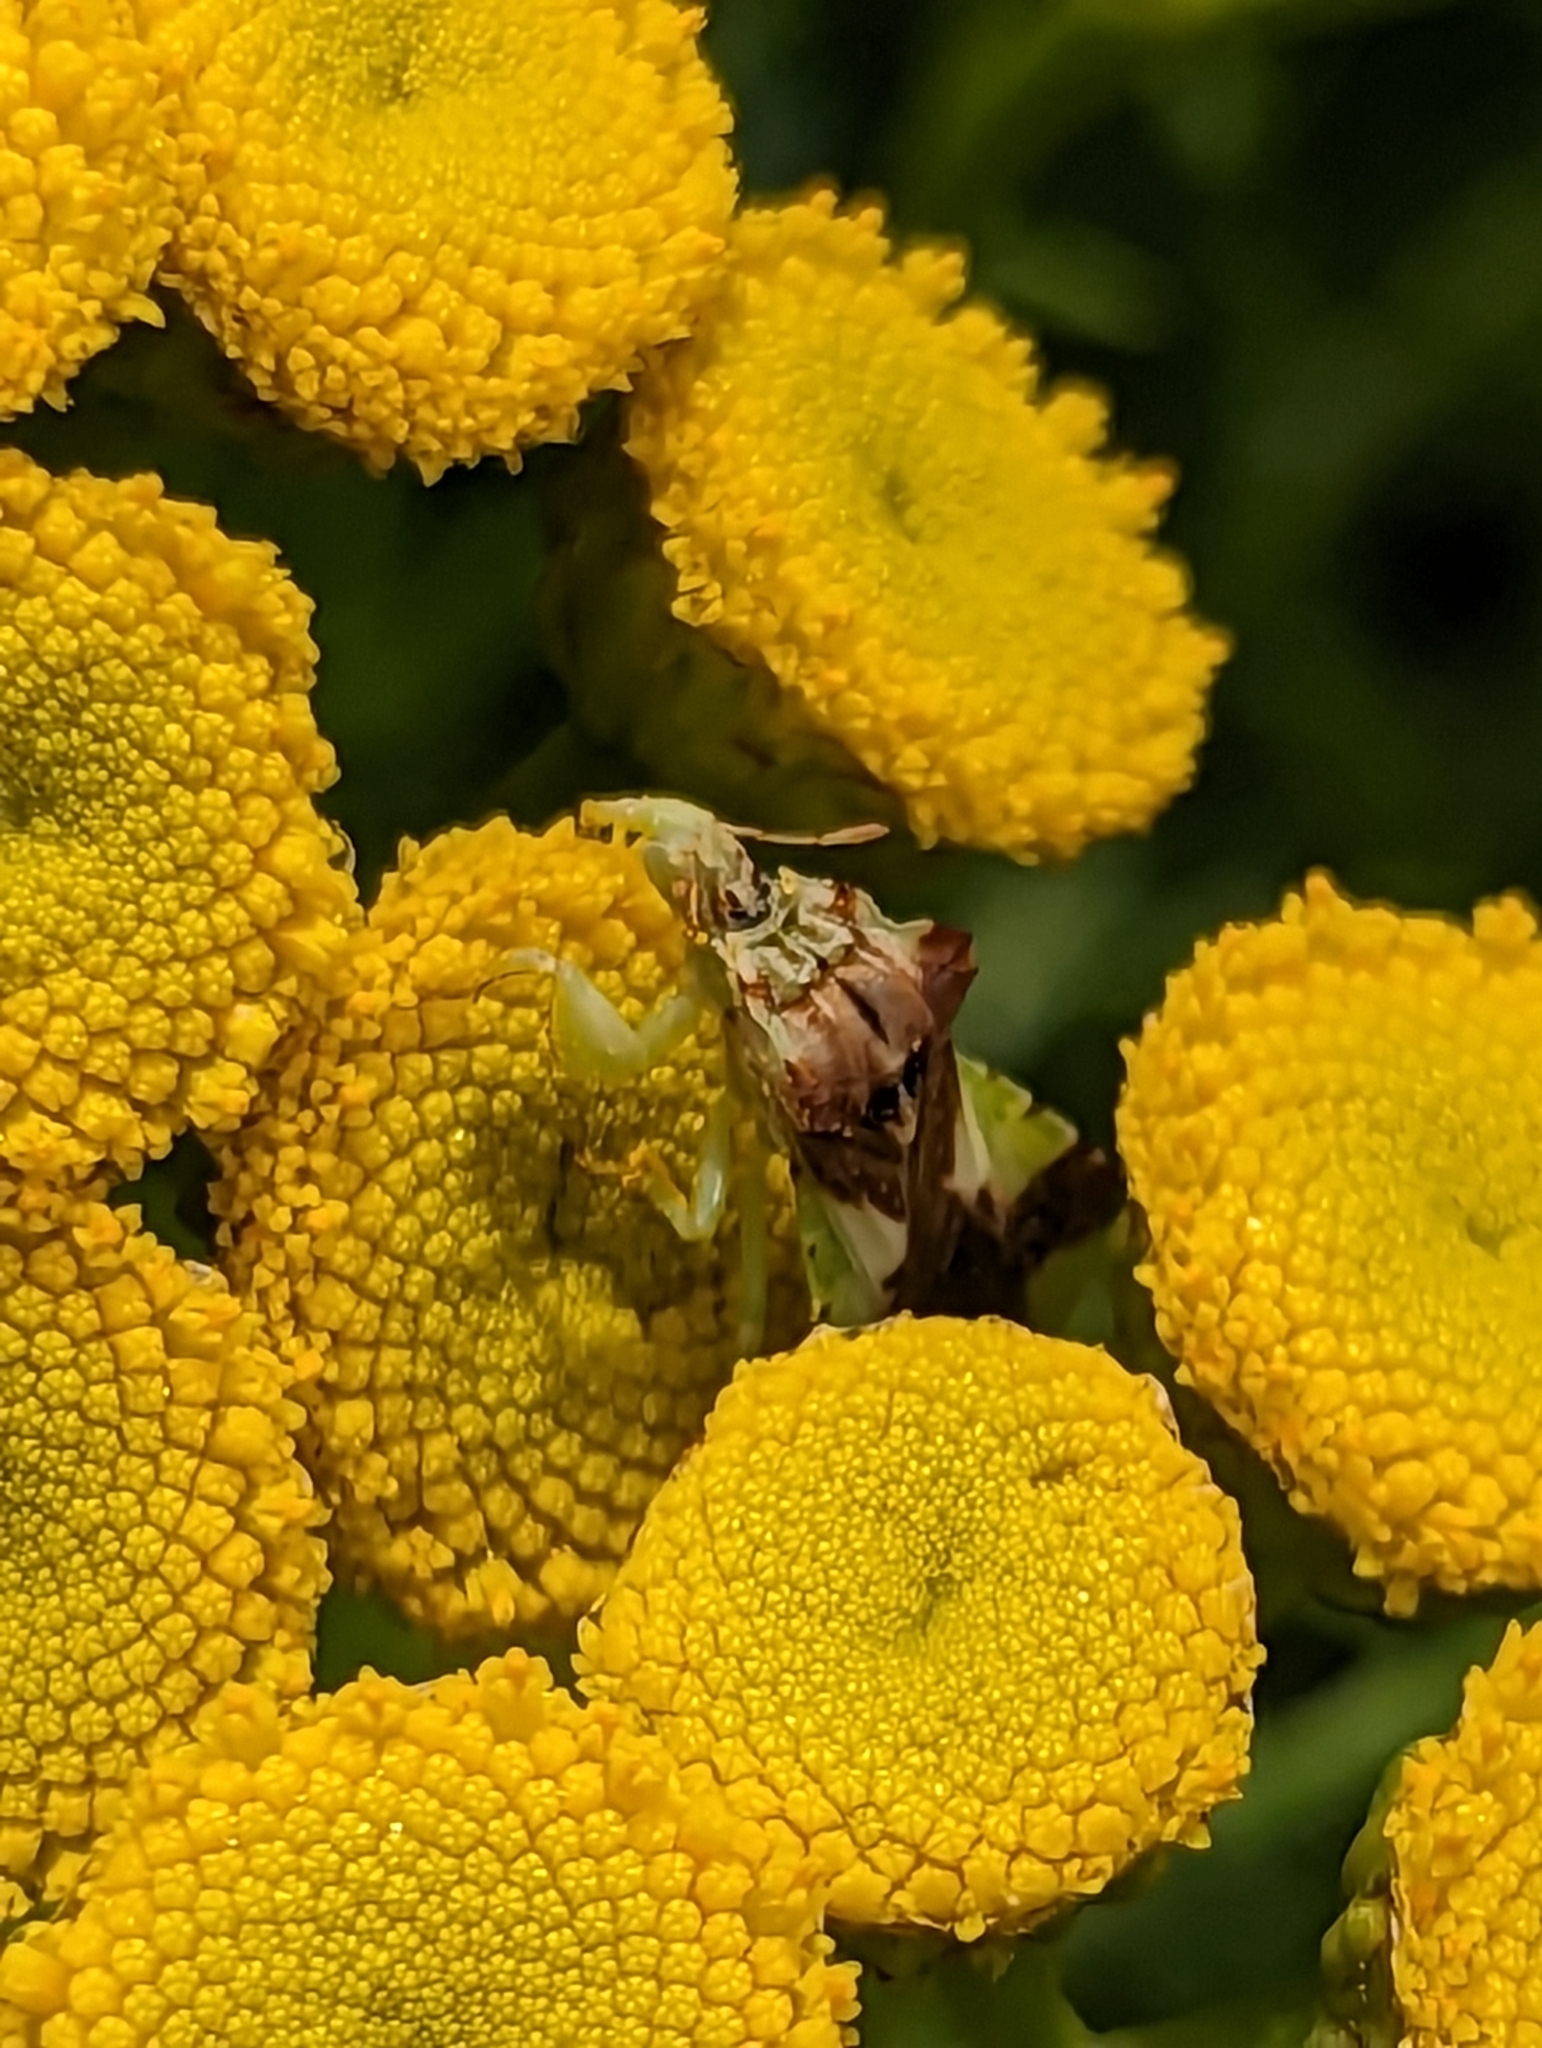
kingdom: Animalia
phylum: Arthropoda
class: Insecta
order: Hemiptera
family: Reduviidae
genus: Phymata
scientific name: Phymata americana
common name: Jagged ambush bug
